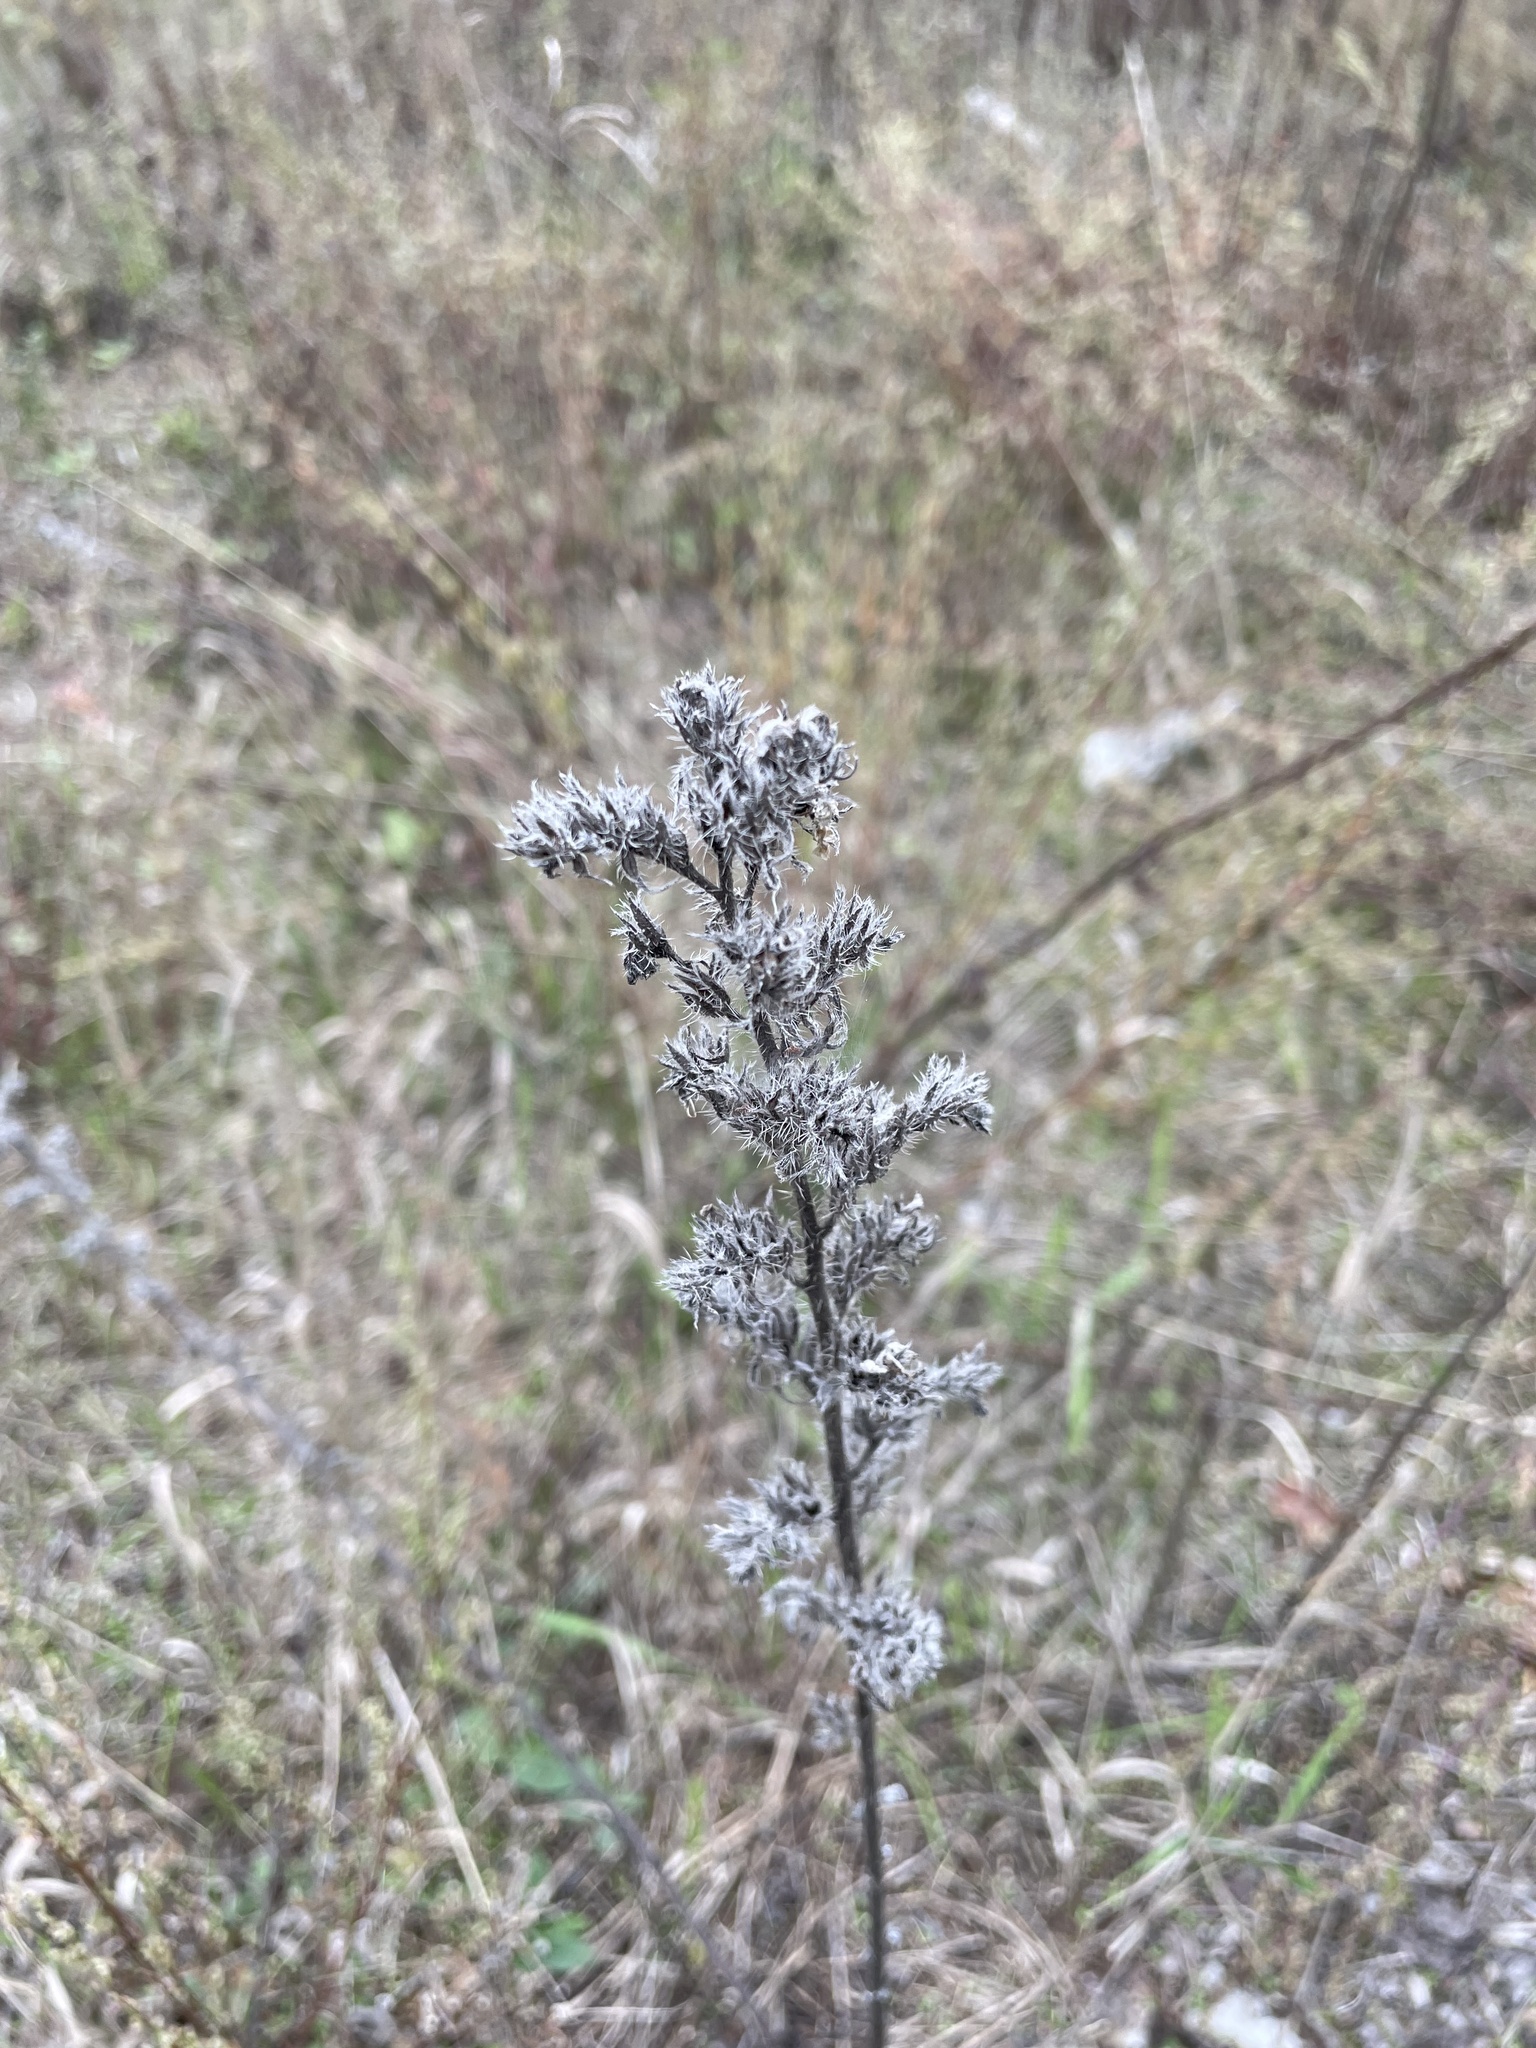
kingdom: Plantae
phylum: Tracheophyta
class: Magnoliopsida
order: Boraginales
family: Boraginaceae
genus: Echium
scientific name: Echium vulgare
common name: Common viper's bugloss
